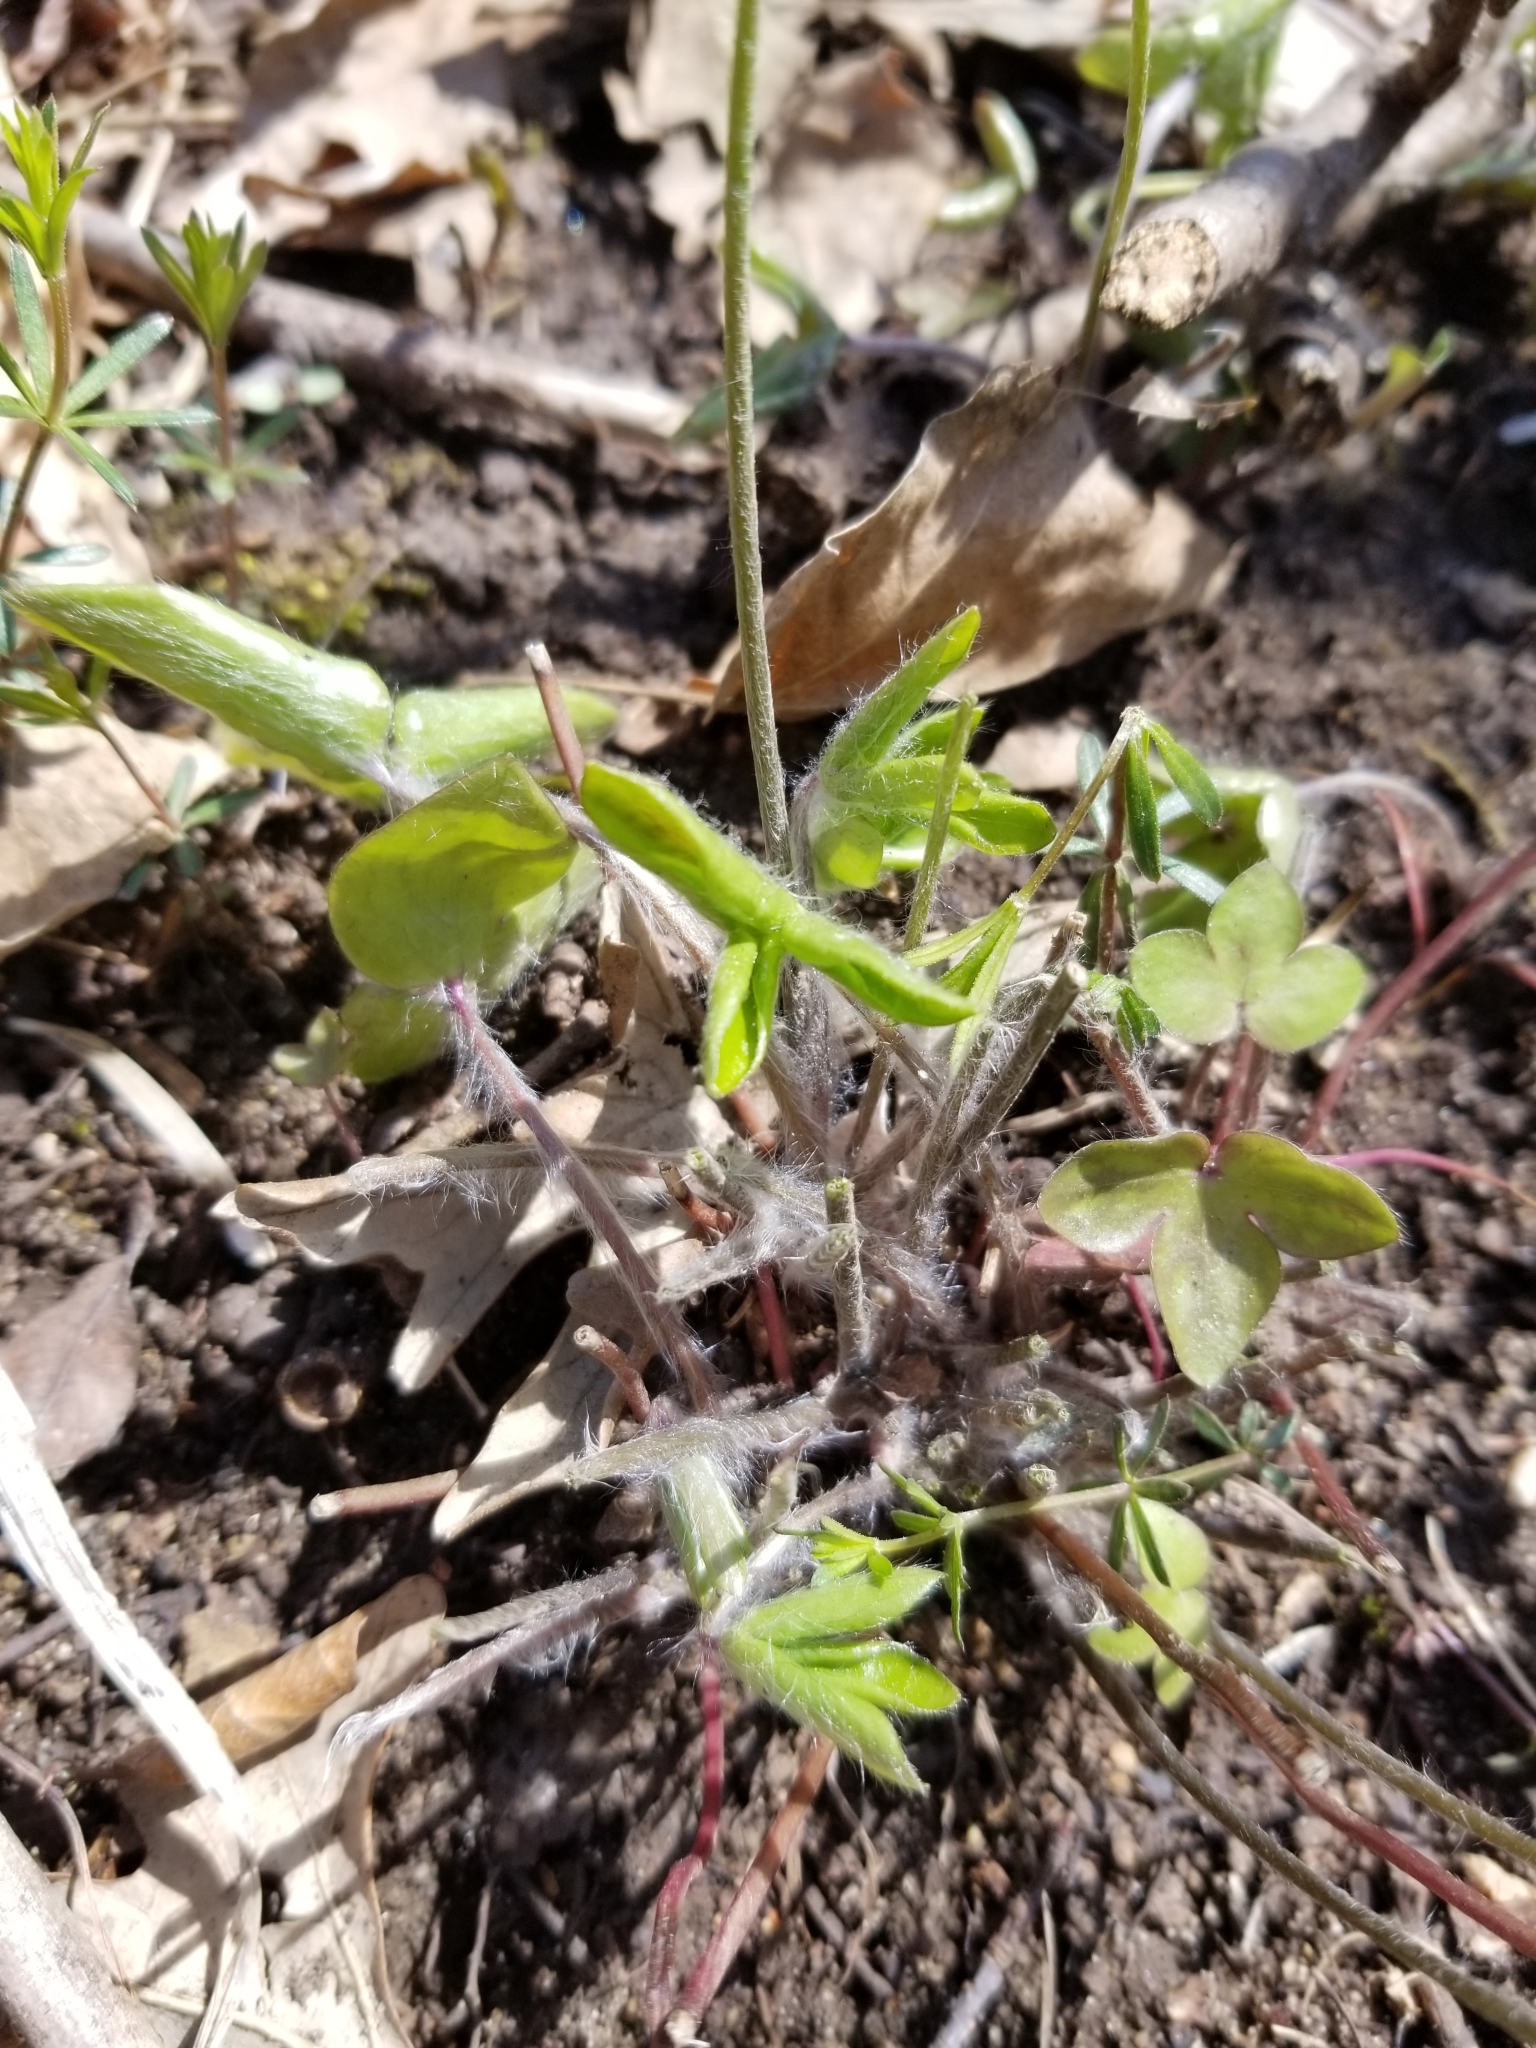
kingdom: Plantae
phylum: Tracheophyta
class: Magnoliopsida
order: Ranunculales
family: Ranunculaceae
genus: Hepatica
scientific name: Hepatica acutiloba
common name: Sharp-lobed hepatica
